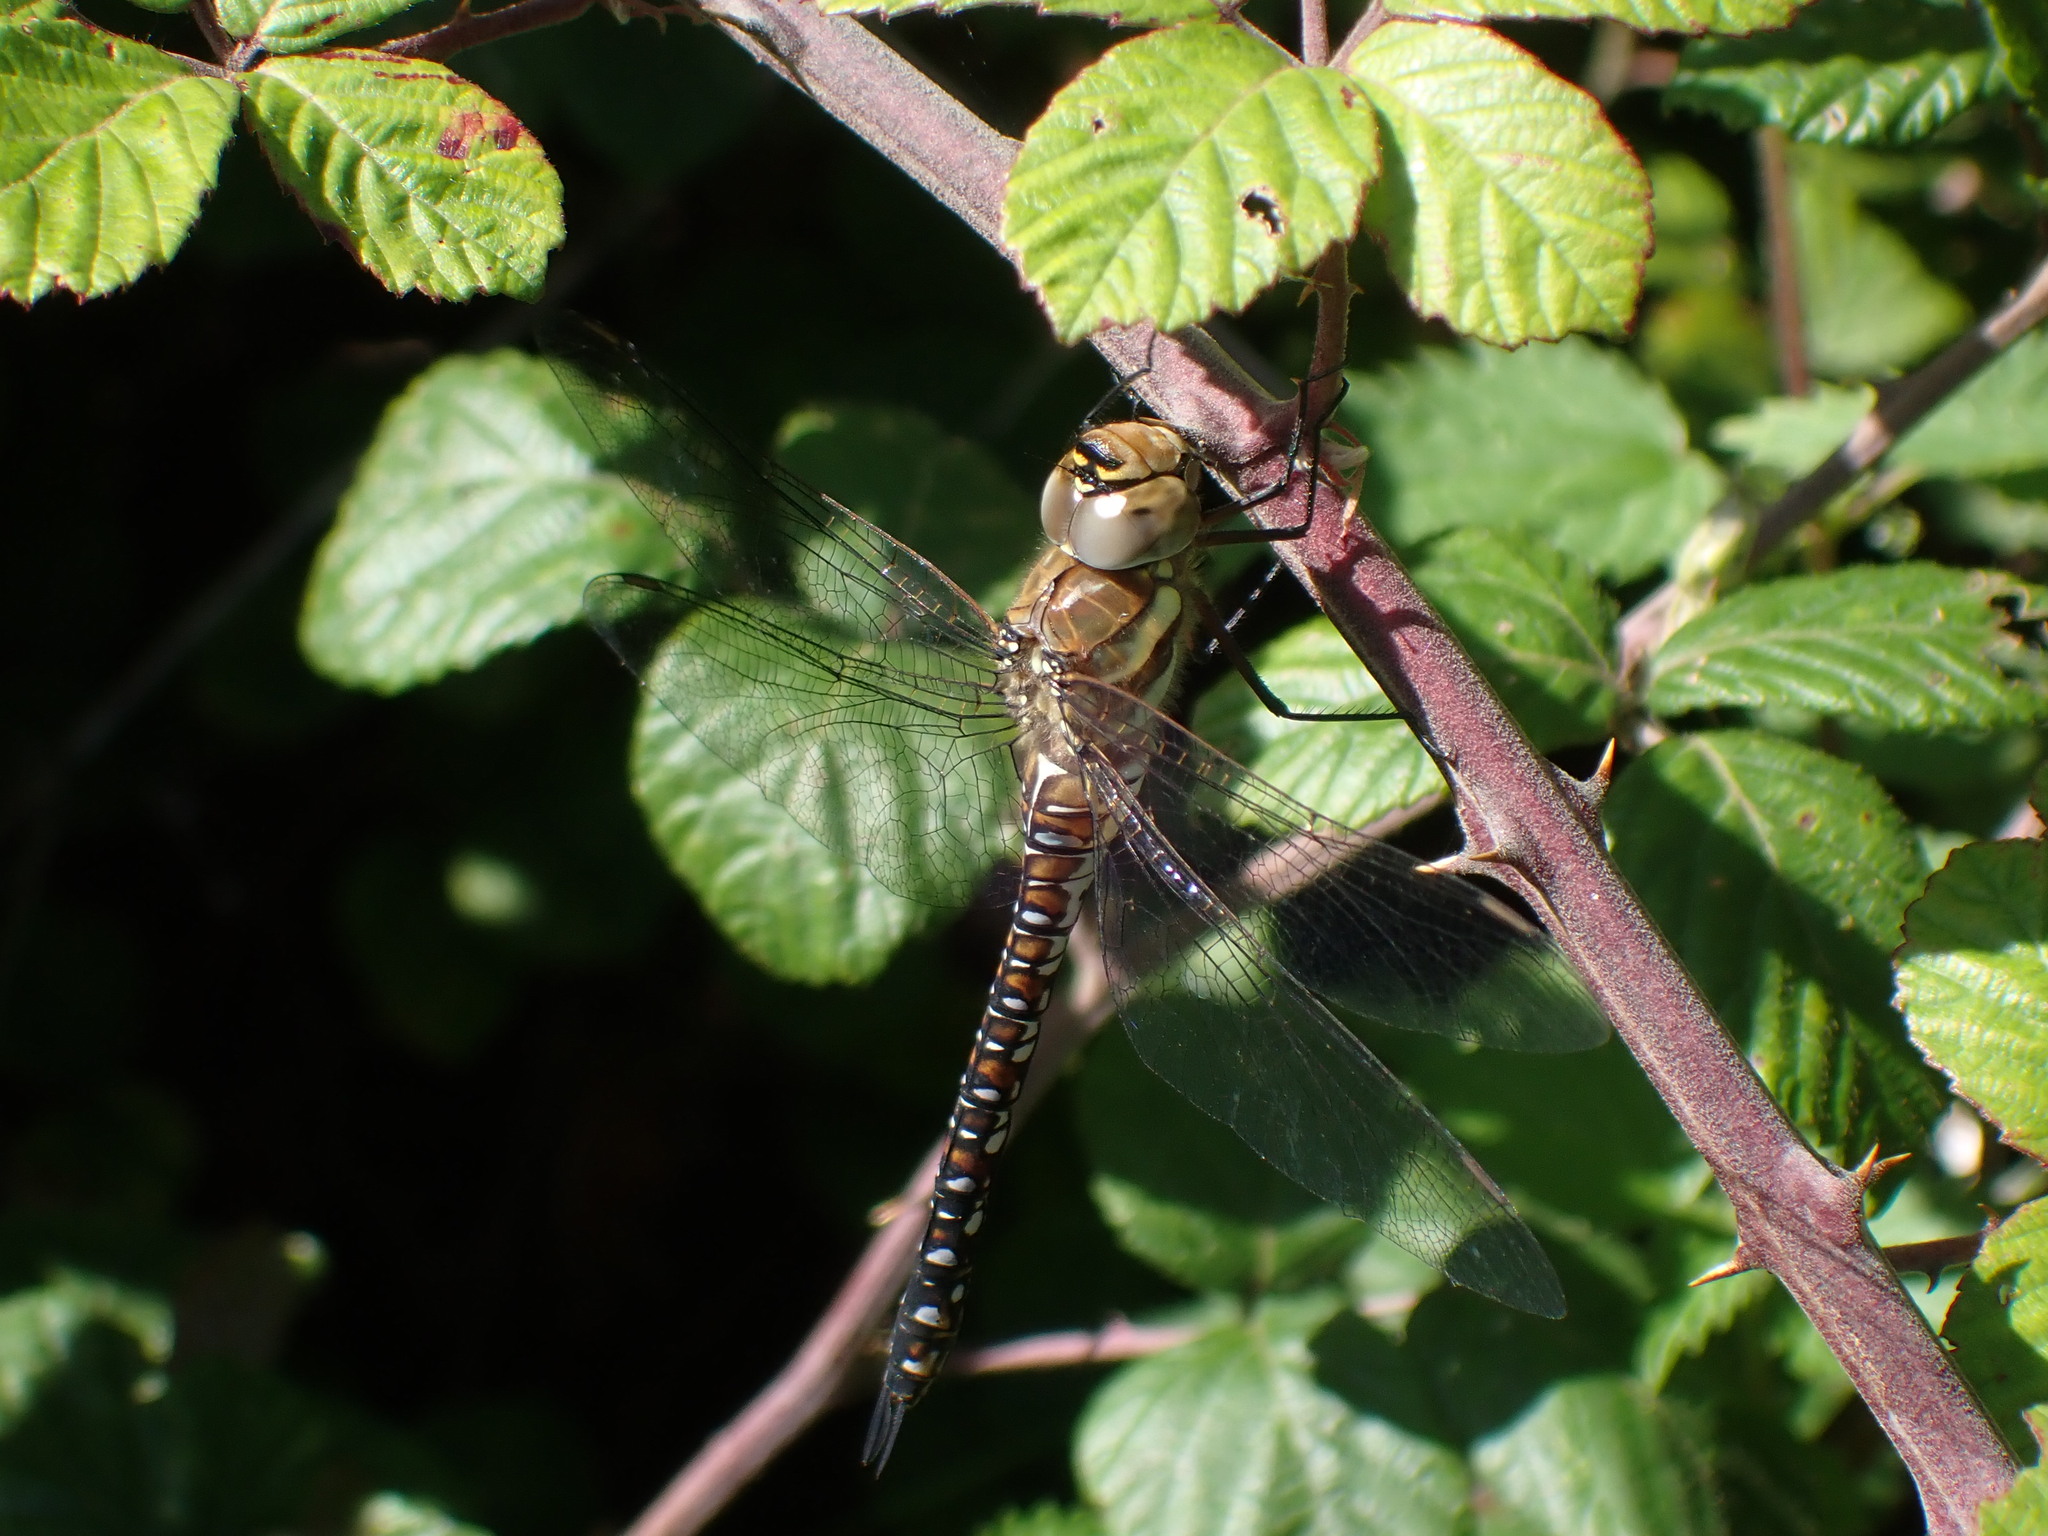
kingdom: Animalia
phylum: Arthropoda
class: Insecta
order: Odonata
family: Aeshnidae
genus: Aeshna
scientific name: Aeshna mixta
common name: Migrant hawker
